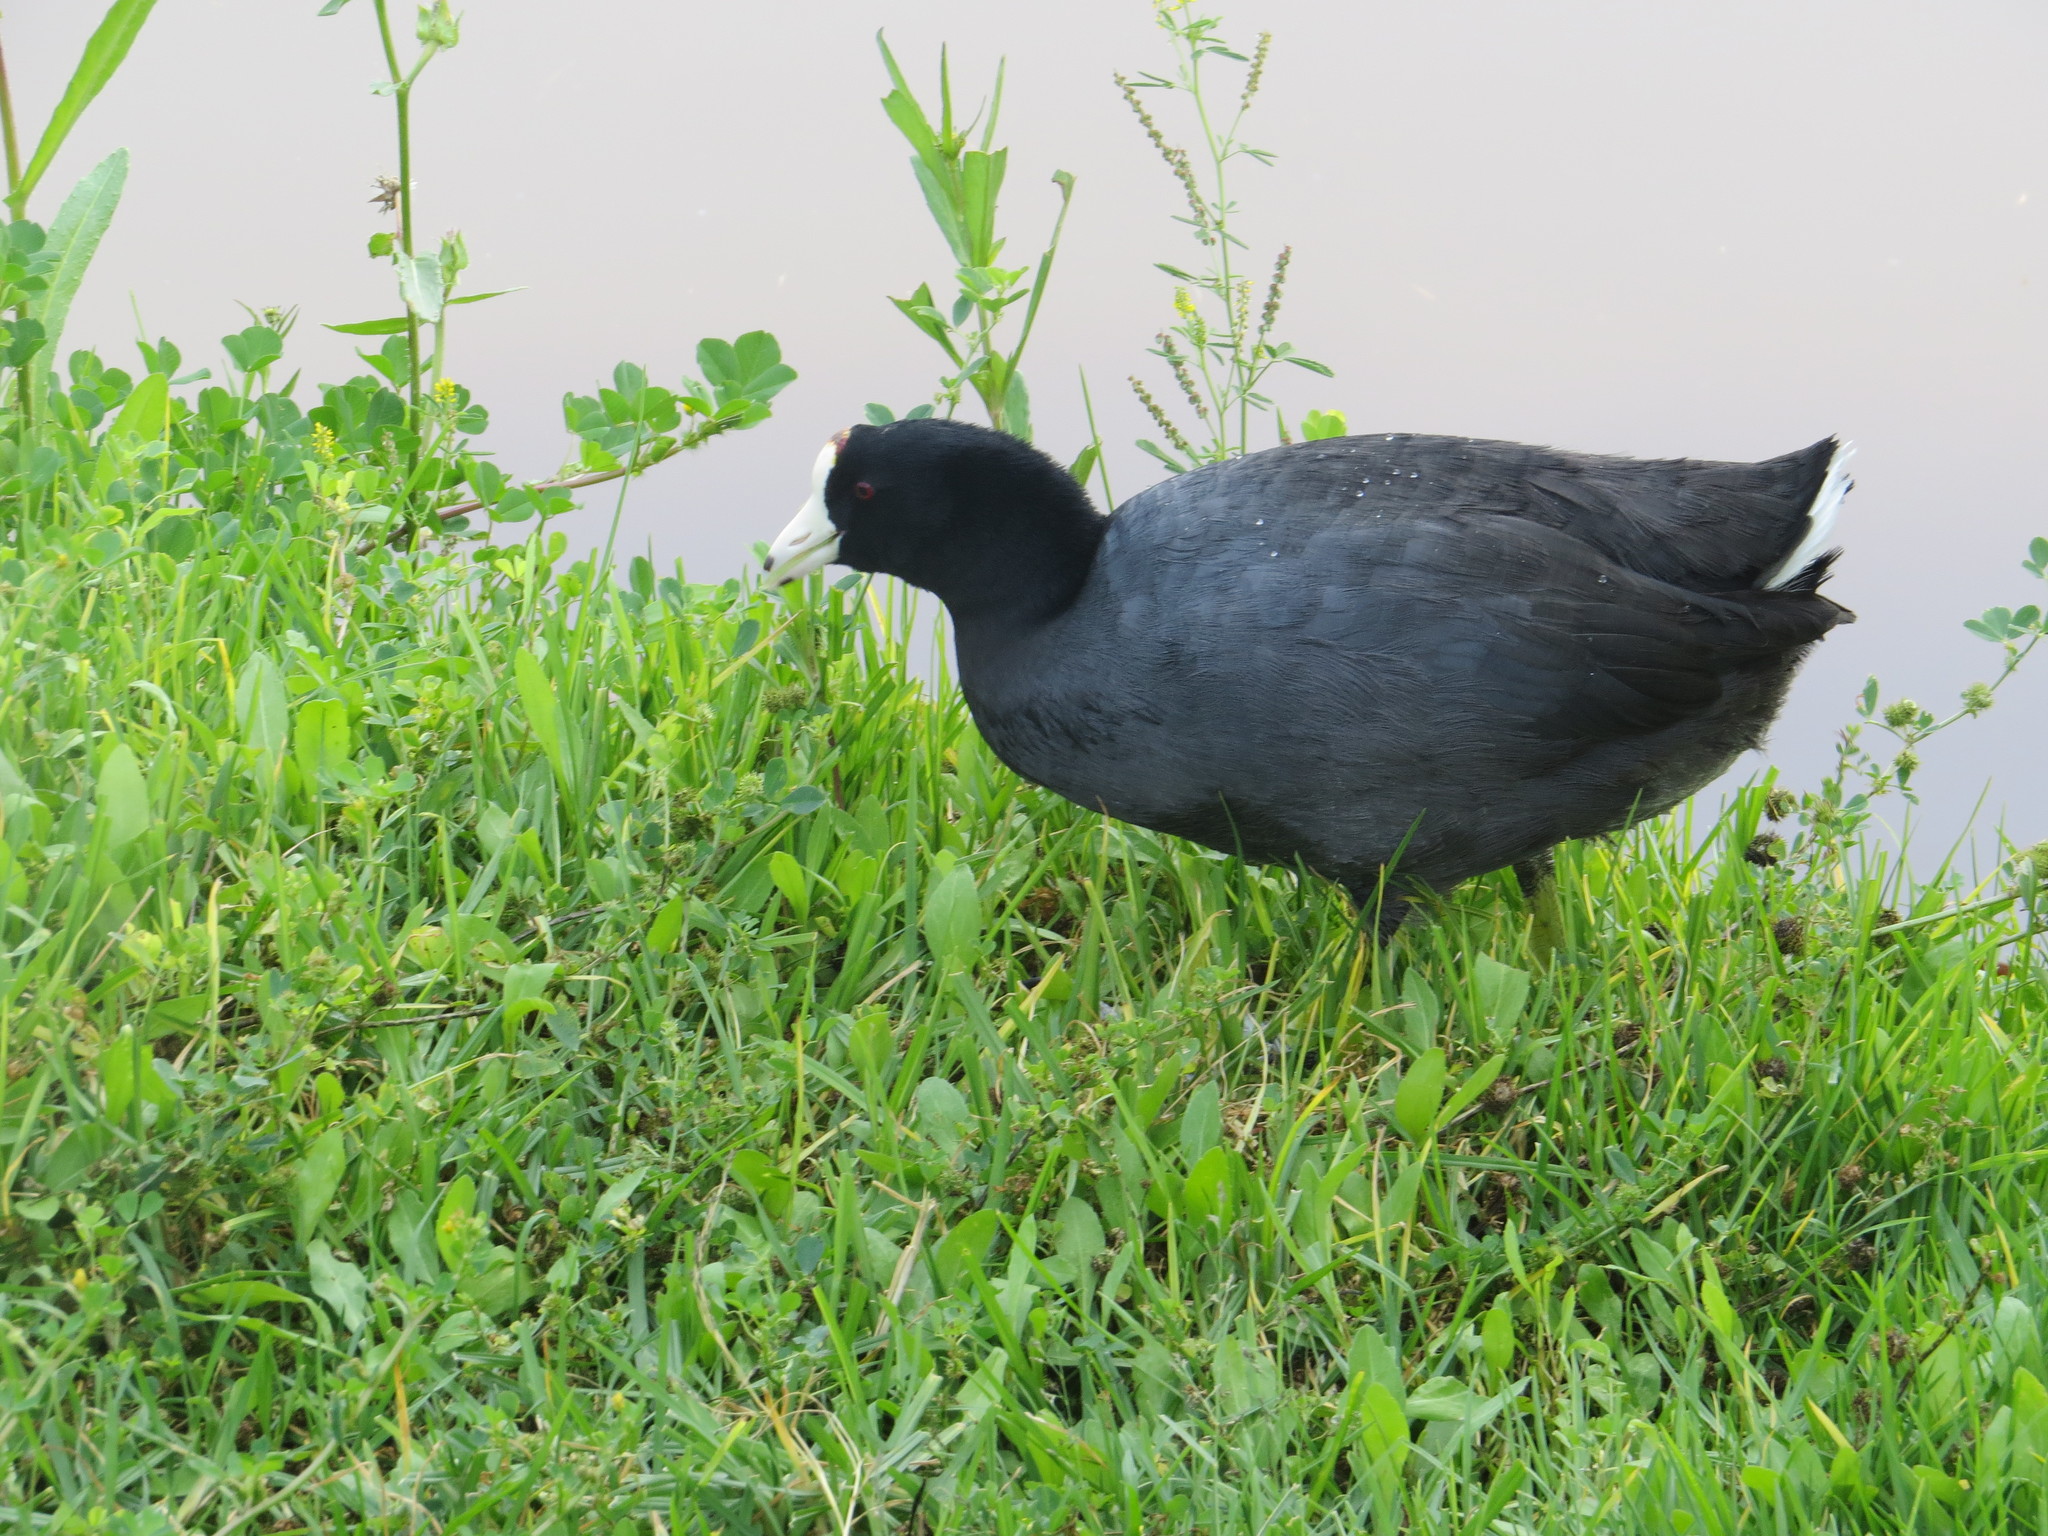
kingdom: Animalia
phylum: Chordata
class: Aves
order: Gruiformes
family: Rallidae
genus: Fulica
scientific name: Fulica americana
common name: American coot
